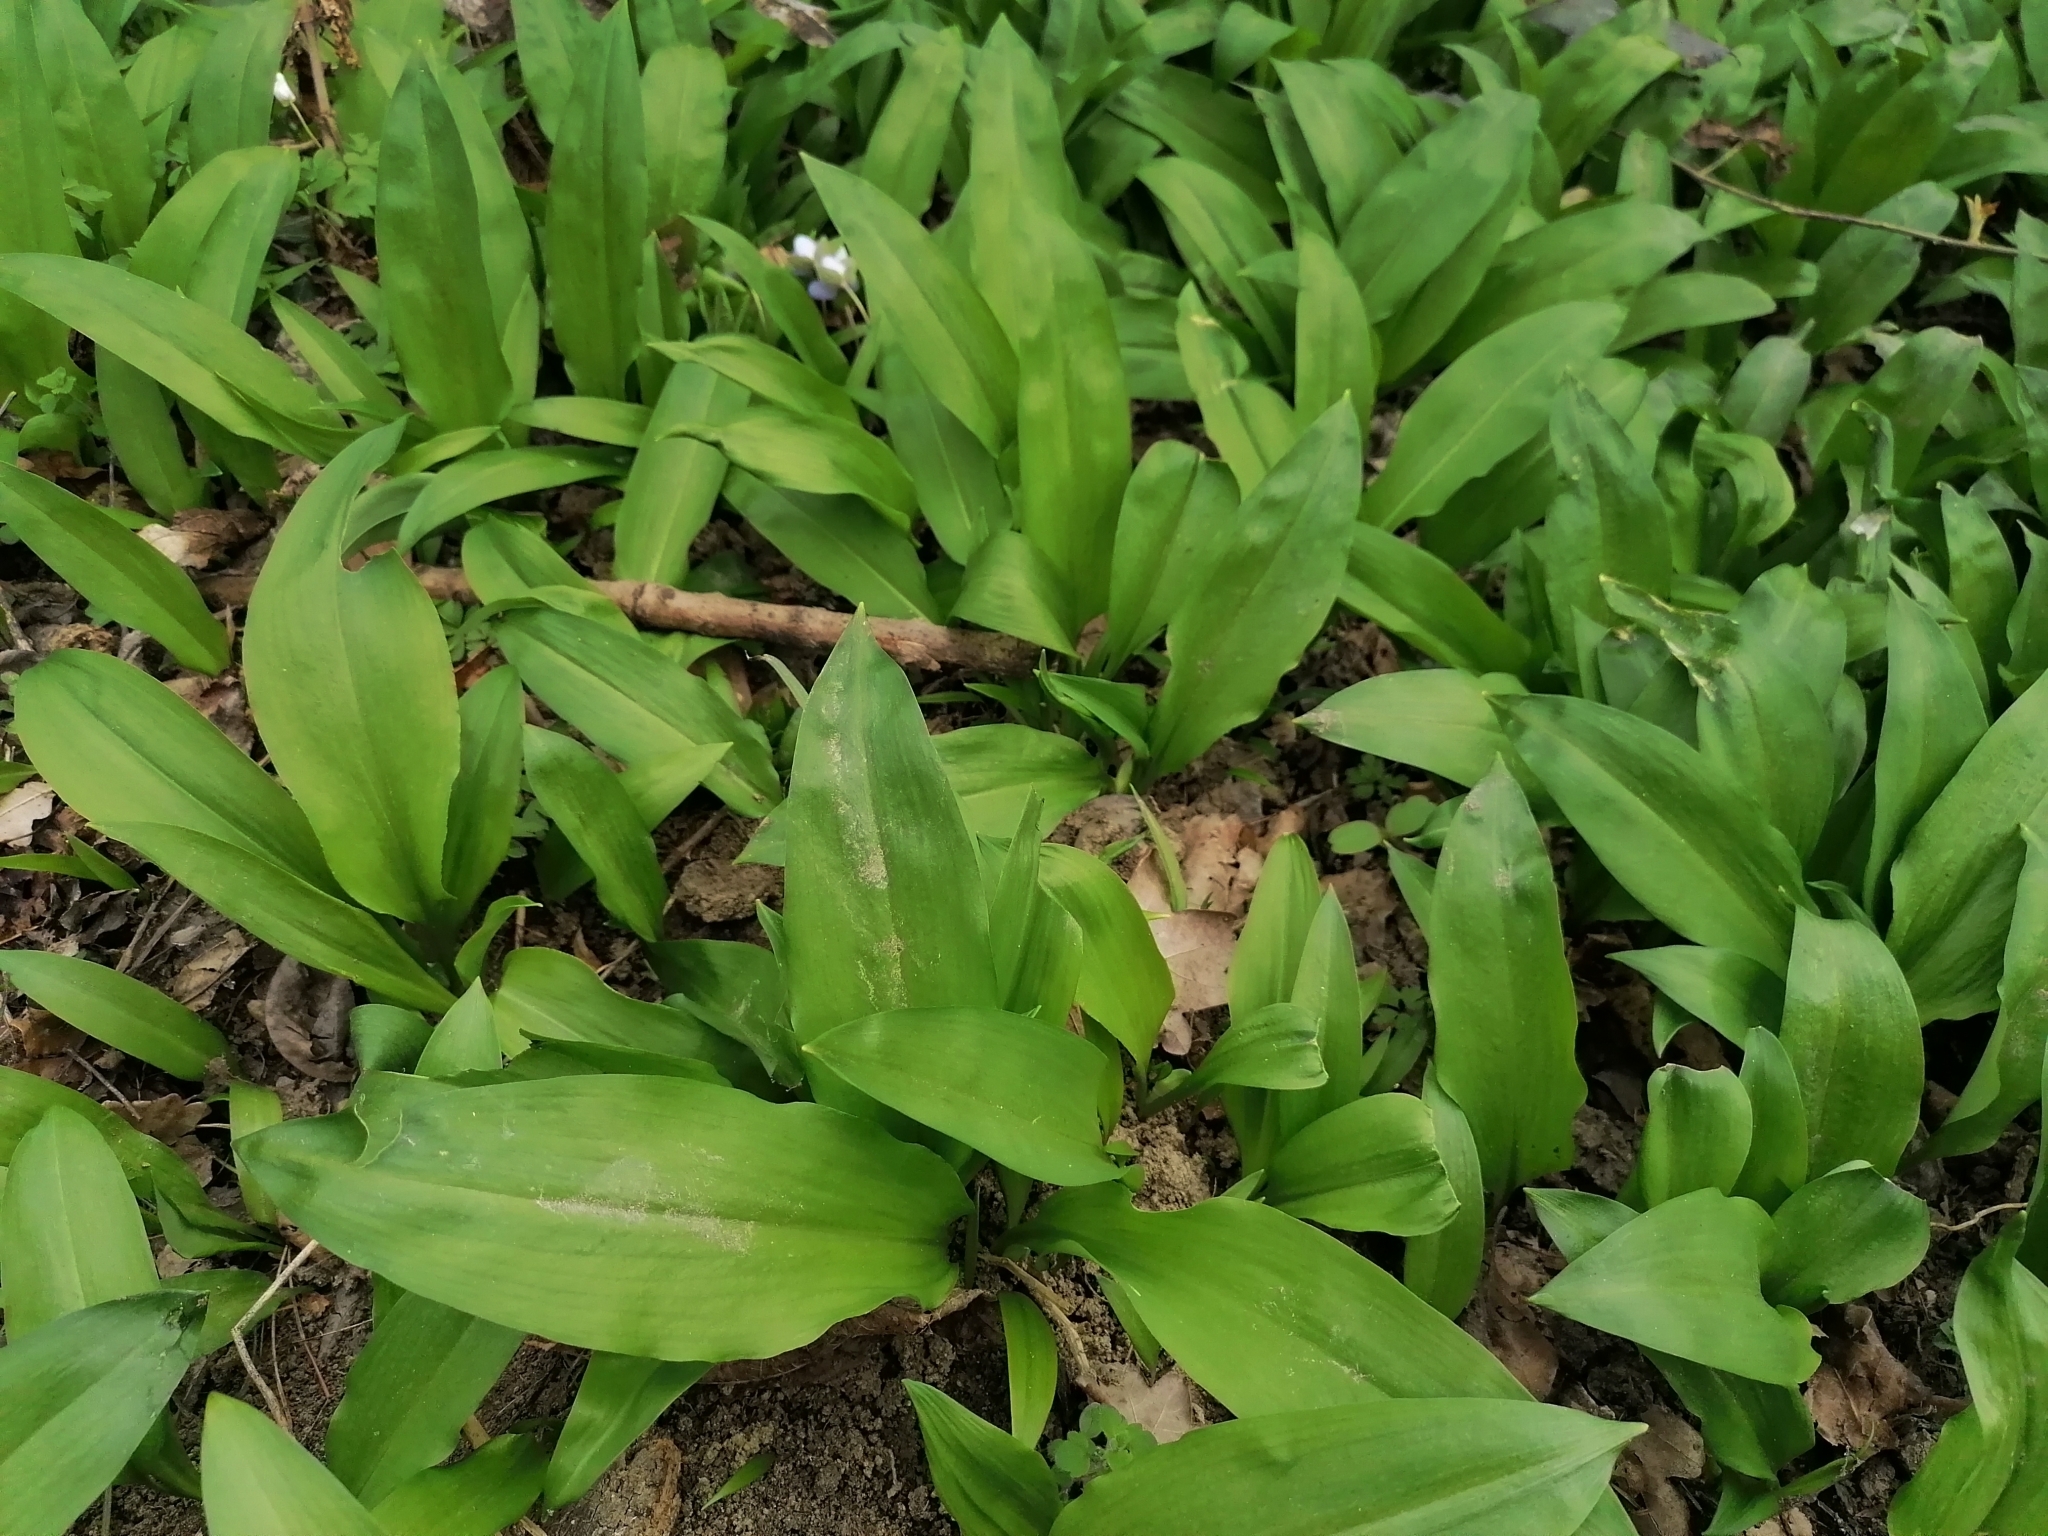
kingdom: Plantae
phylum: Tracheophyta
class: Liliopsida
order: Asparagales
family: Amaryllidaceae
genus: Allium
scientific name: Allium ursinum
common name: Ramsons
